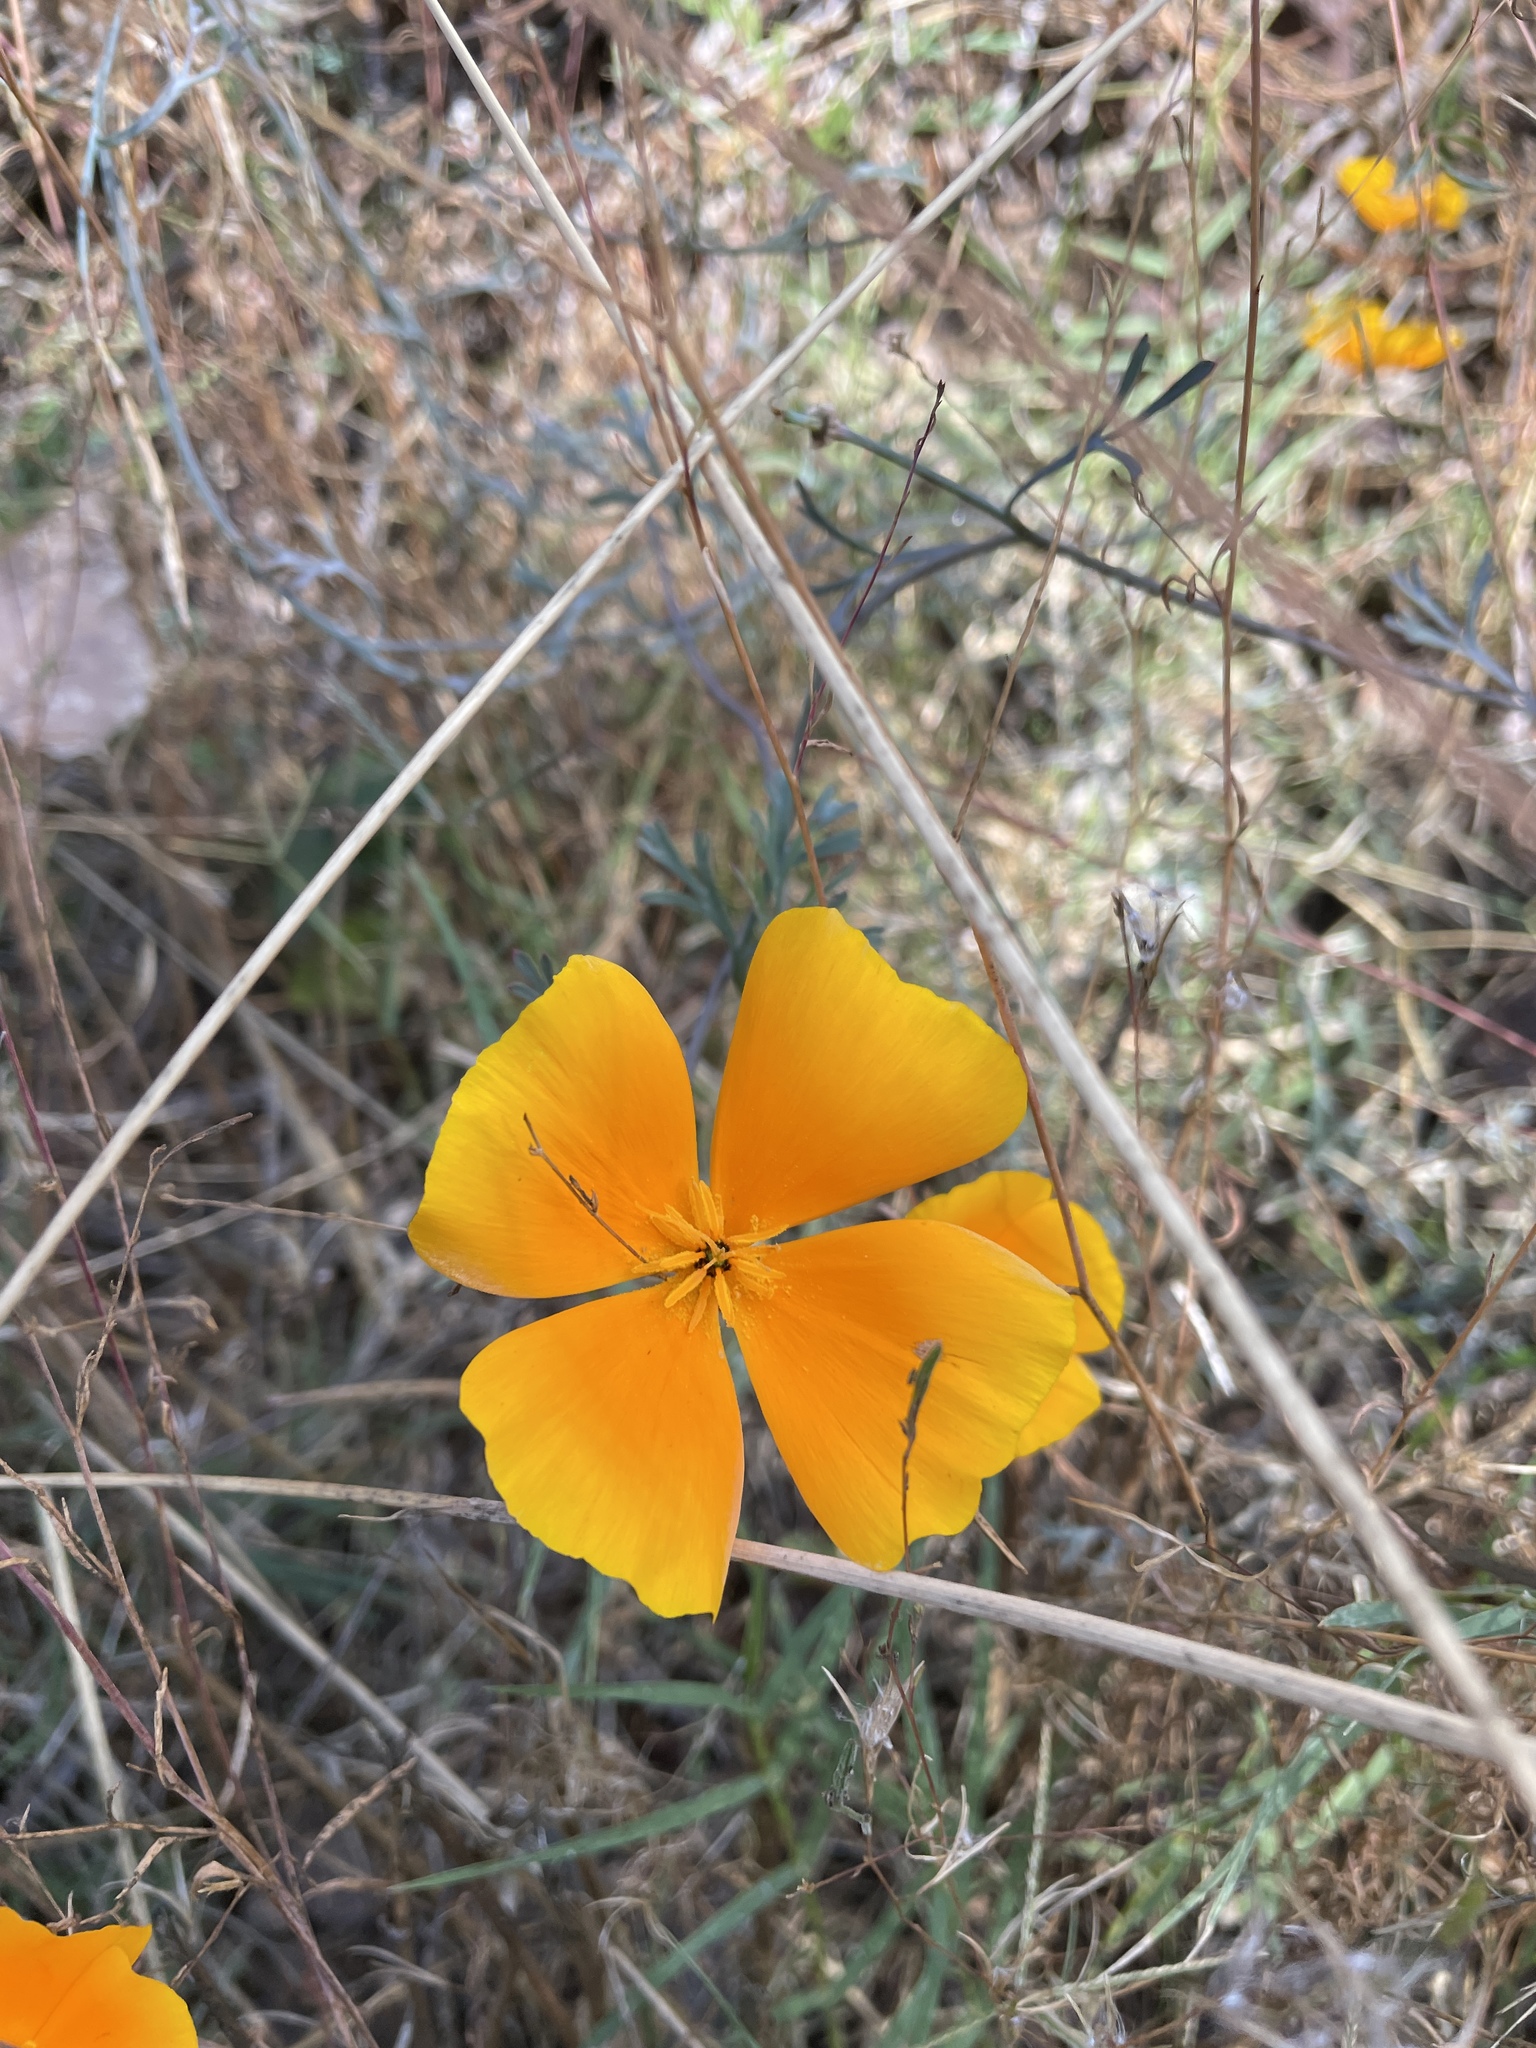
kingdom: Plantae
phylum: Tracheophyta
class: Magnoliopsida
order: Ranunculales
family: Papaveraceae
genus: Eschscholzia
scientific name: Eschscholzia californica
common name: California poppy
